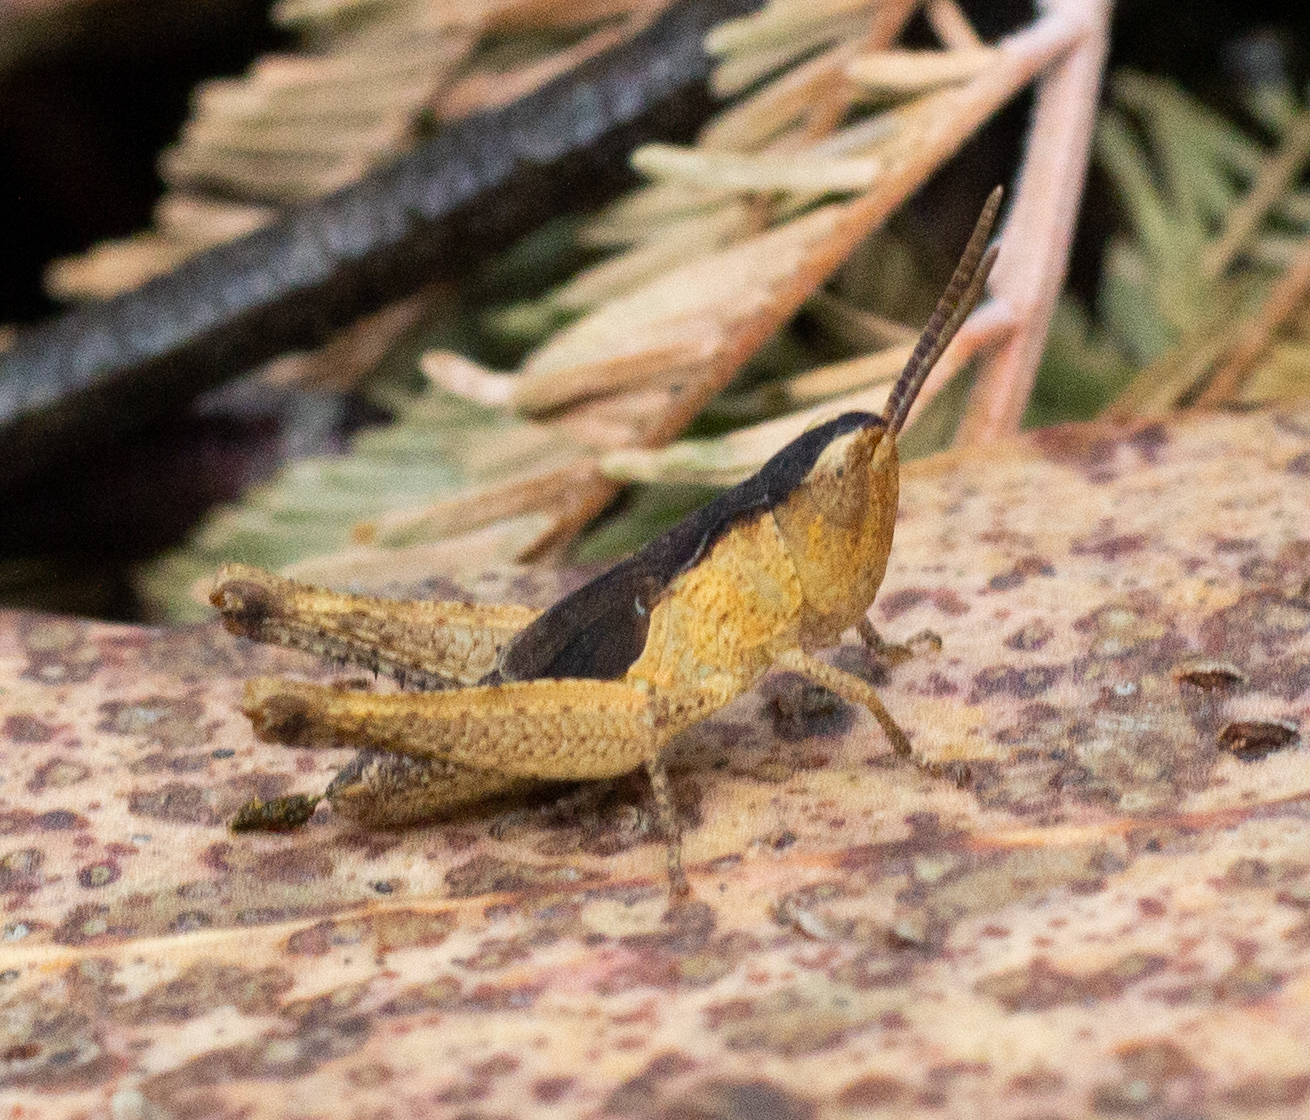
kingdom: Animalia
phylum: Arthropoda
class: Insecta
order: Orthoptera
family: Acrididae
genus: Chorthippus
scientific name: Chorthippus vagans
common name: Heath grasshopper
